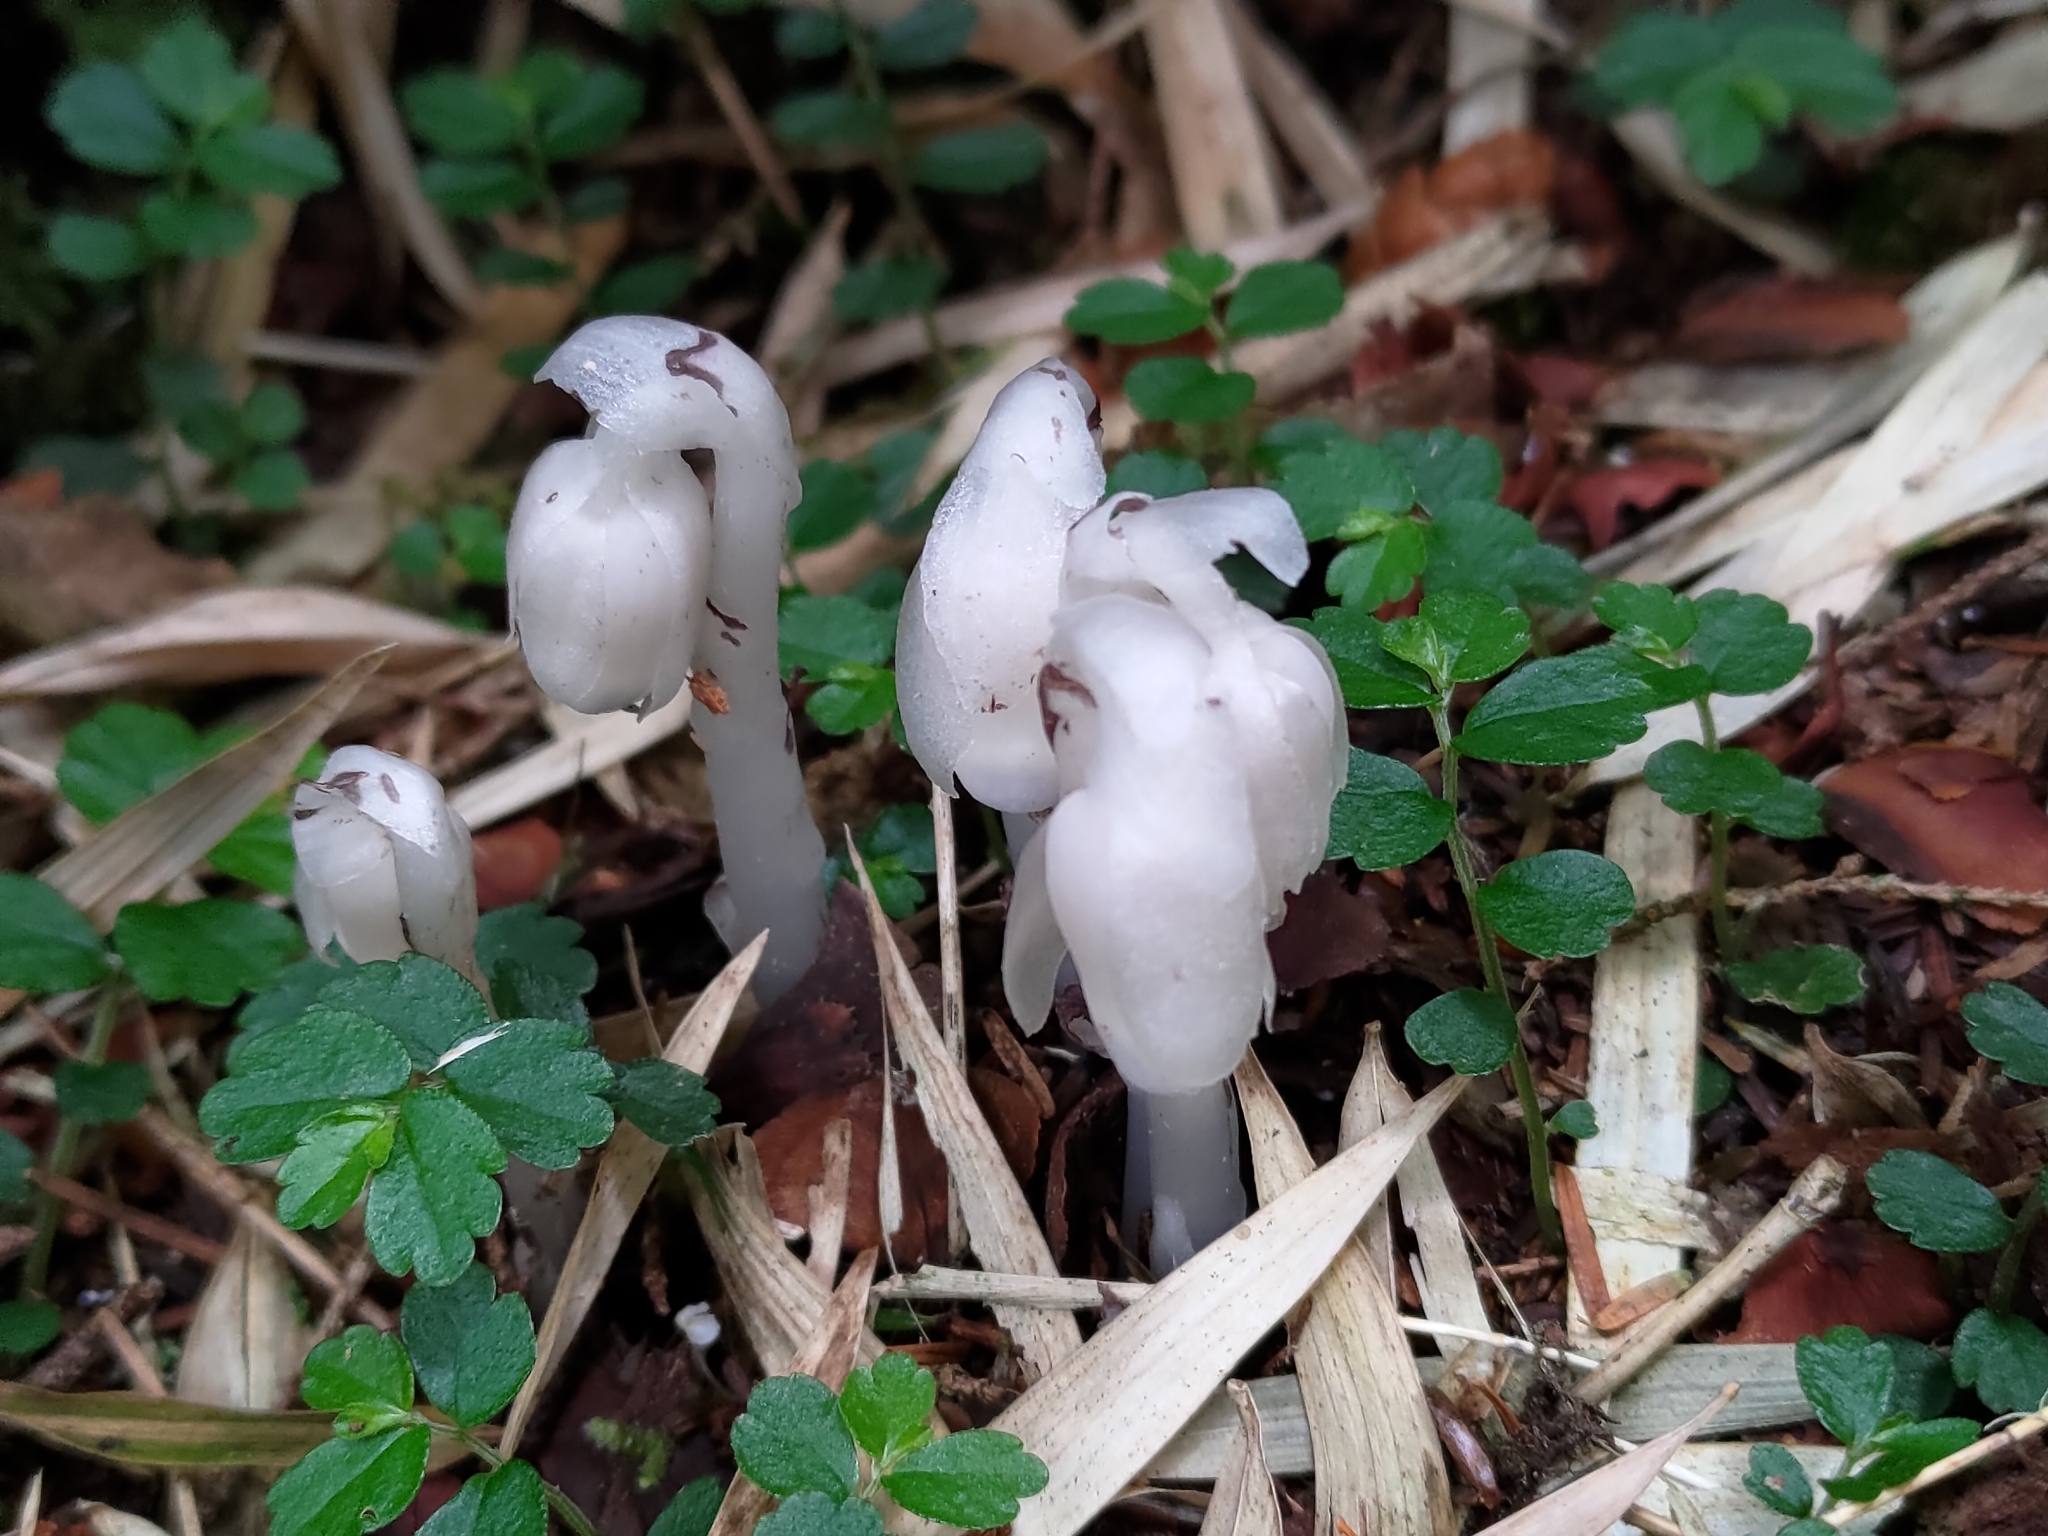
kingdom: Plantae
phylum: Tracheophyta
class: Magnoliopsida
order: Ericales
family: Ericaceae
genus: Monotropastrum
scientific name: Monotropastrum humile
